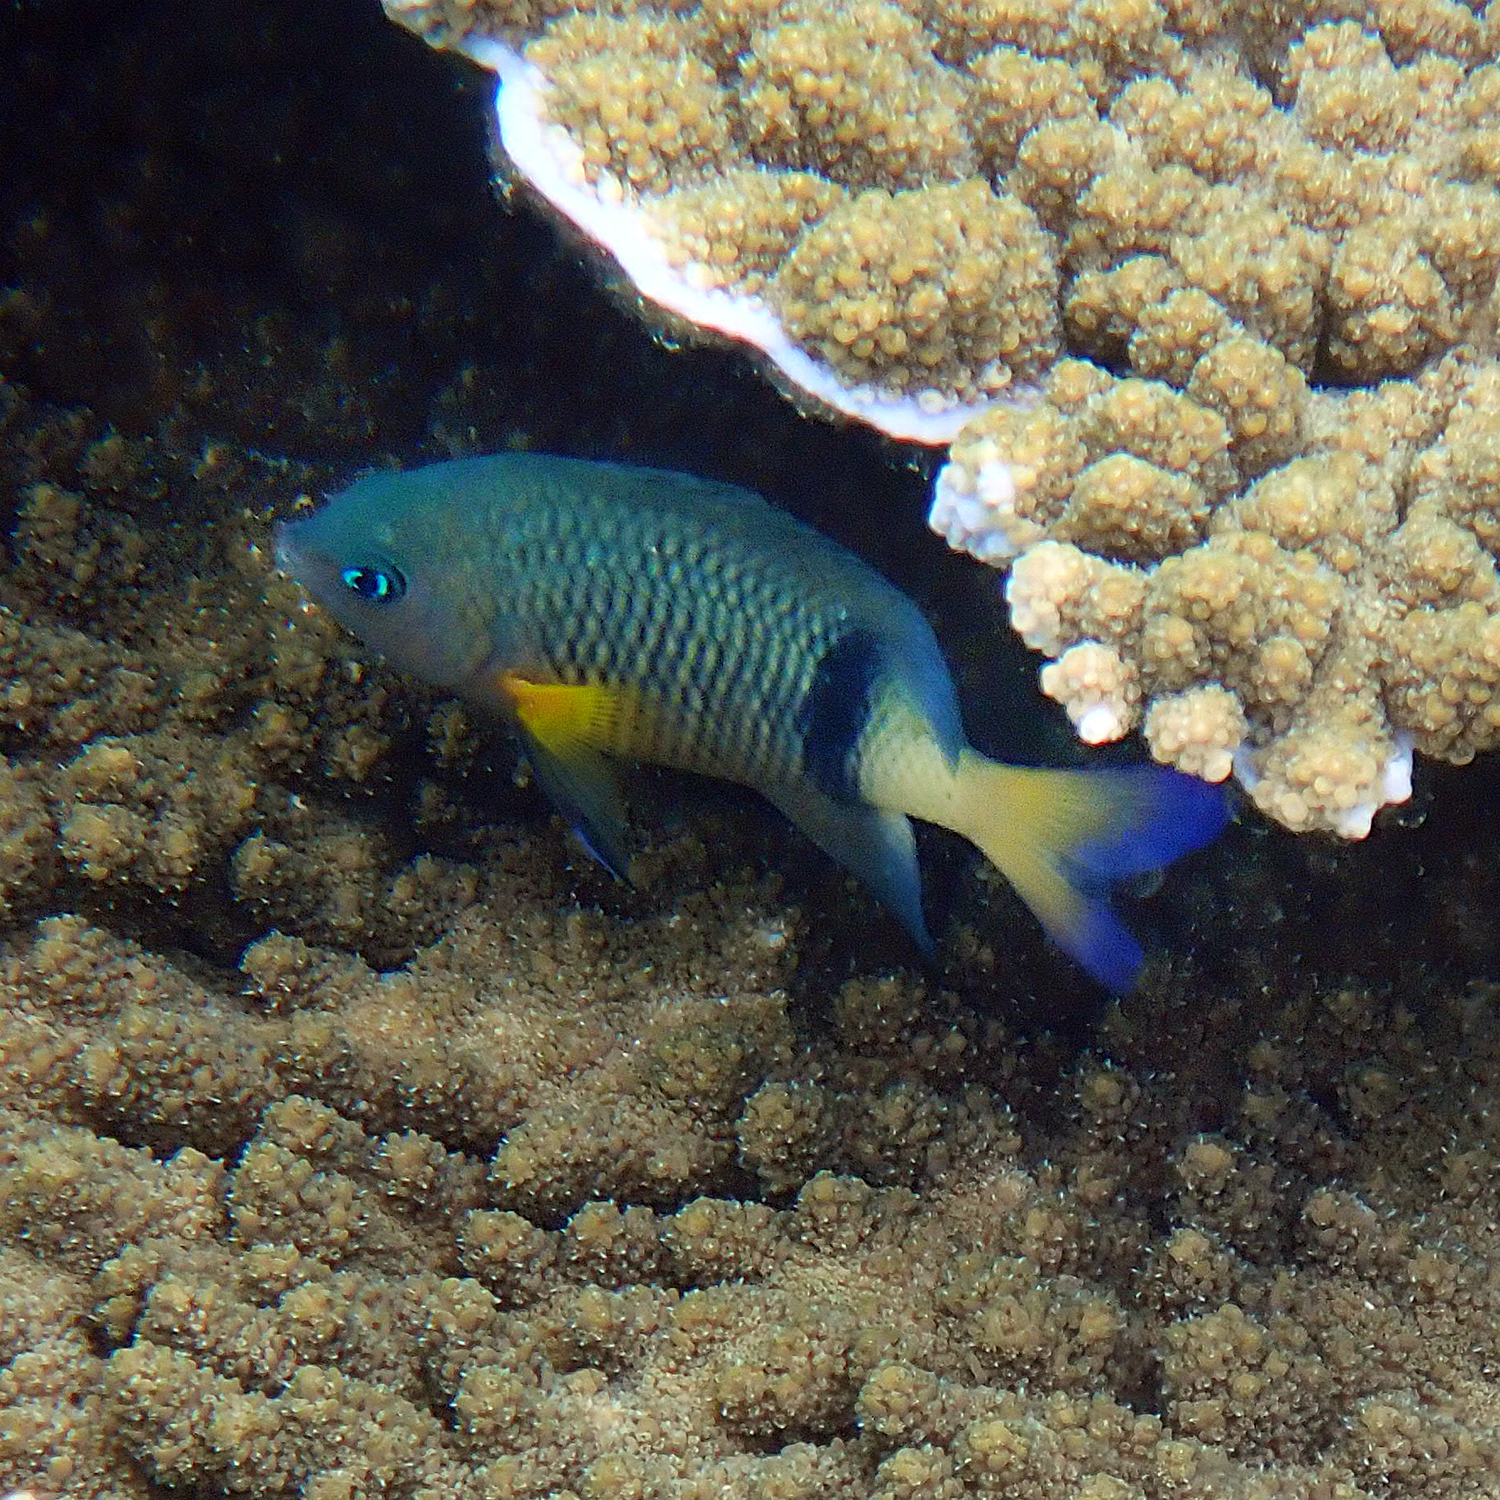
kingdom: Animalia
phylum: Chordata
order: Perciformes
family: Pomacentridae
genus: Plectroglyphidodon
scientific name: Plectroglyphidodon dickii
